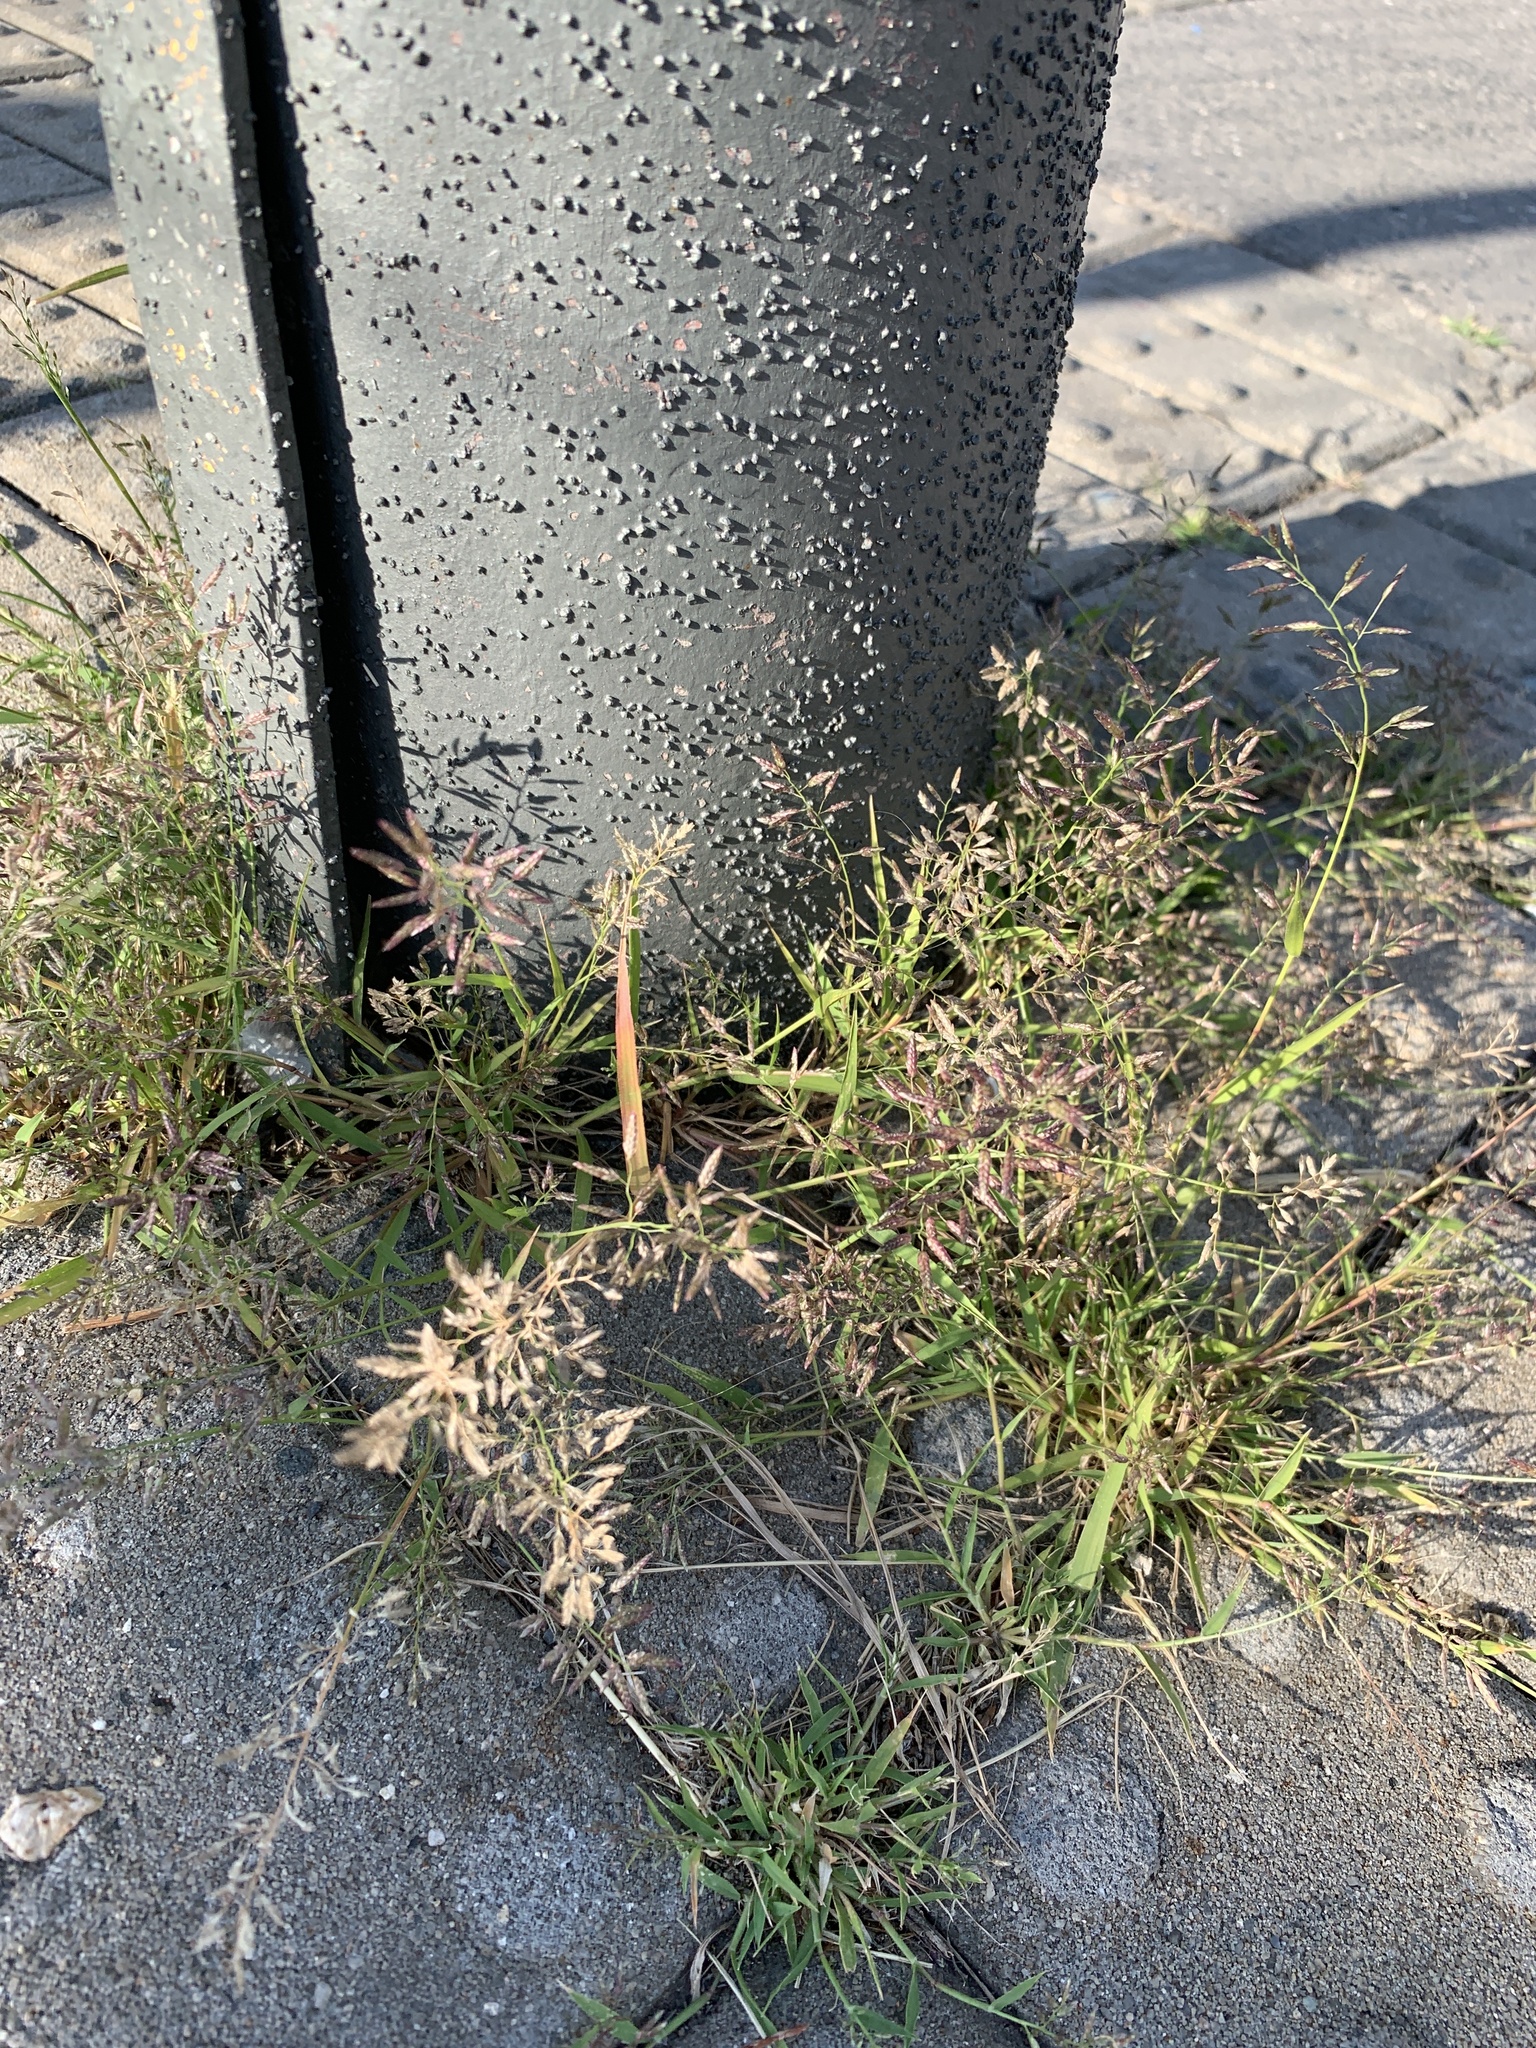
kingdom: Plantae
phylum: Tracheophyta
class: Liliopsida
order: Poales
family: Poaceae
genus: Eragrostis
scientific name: Eragrostis minor
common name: Small love-grass
